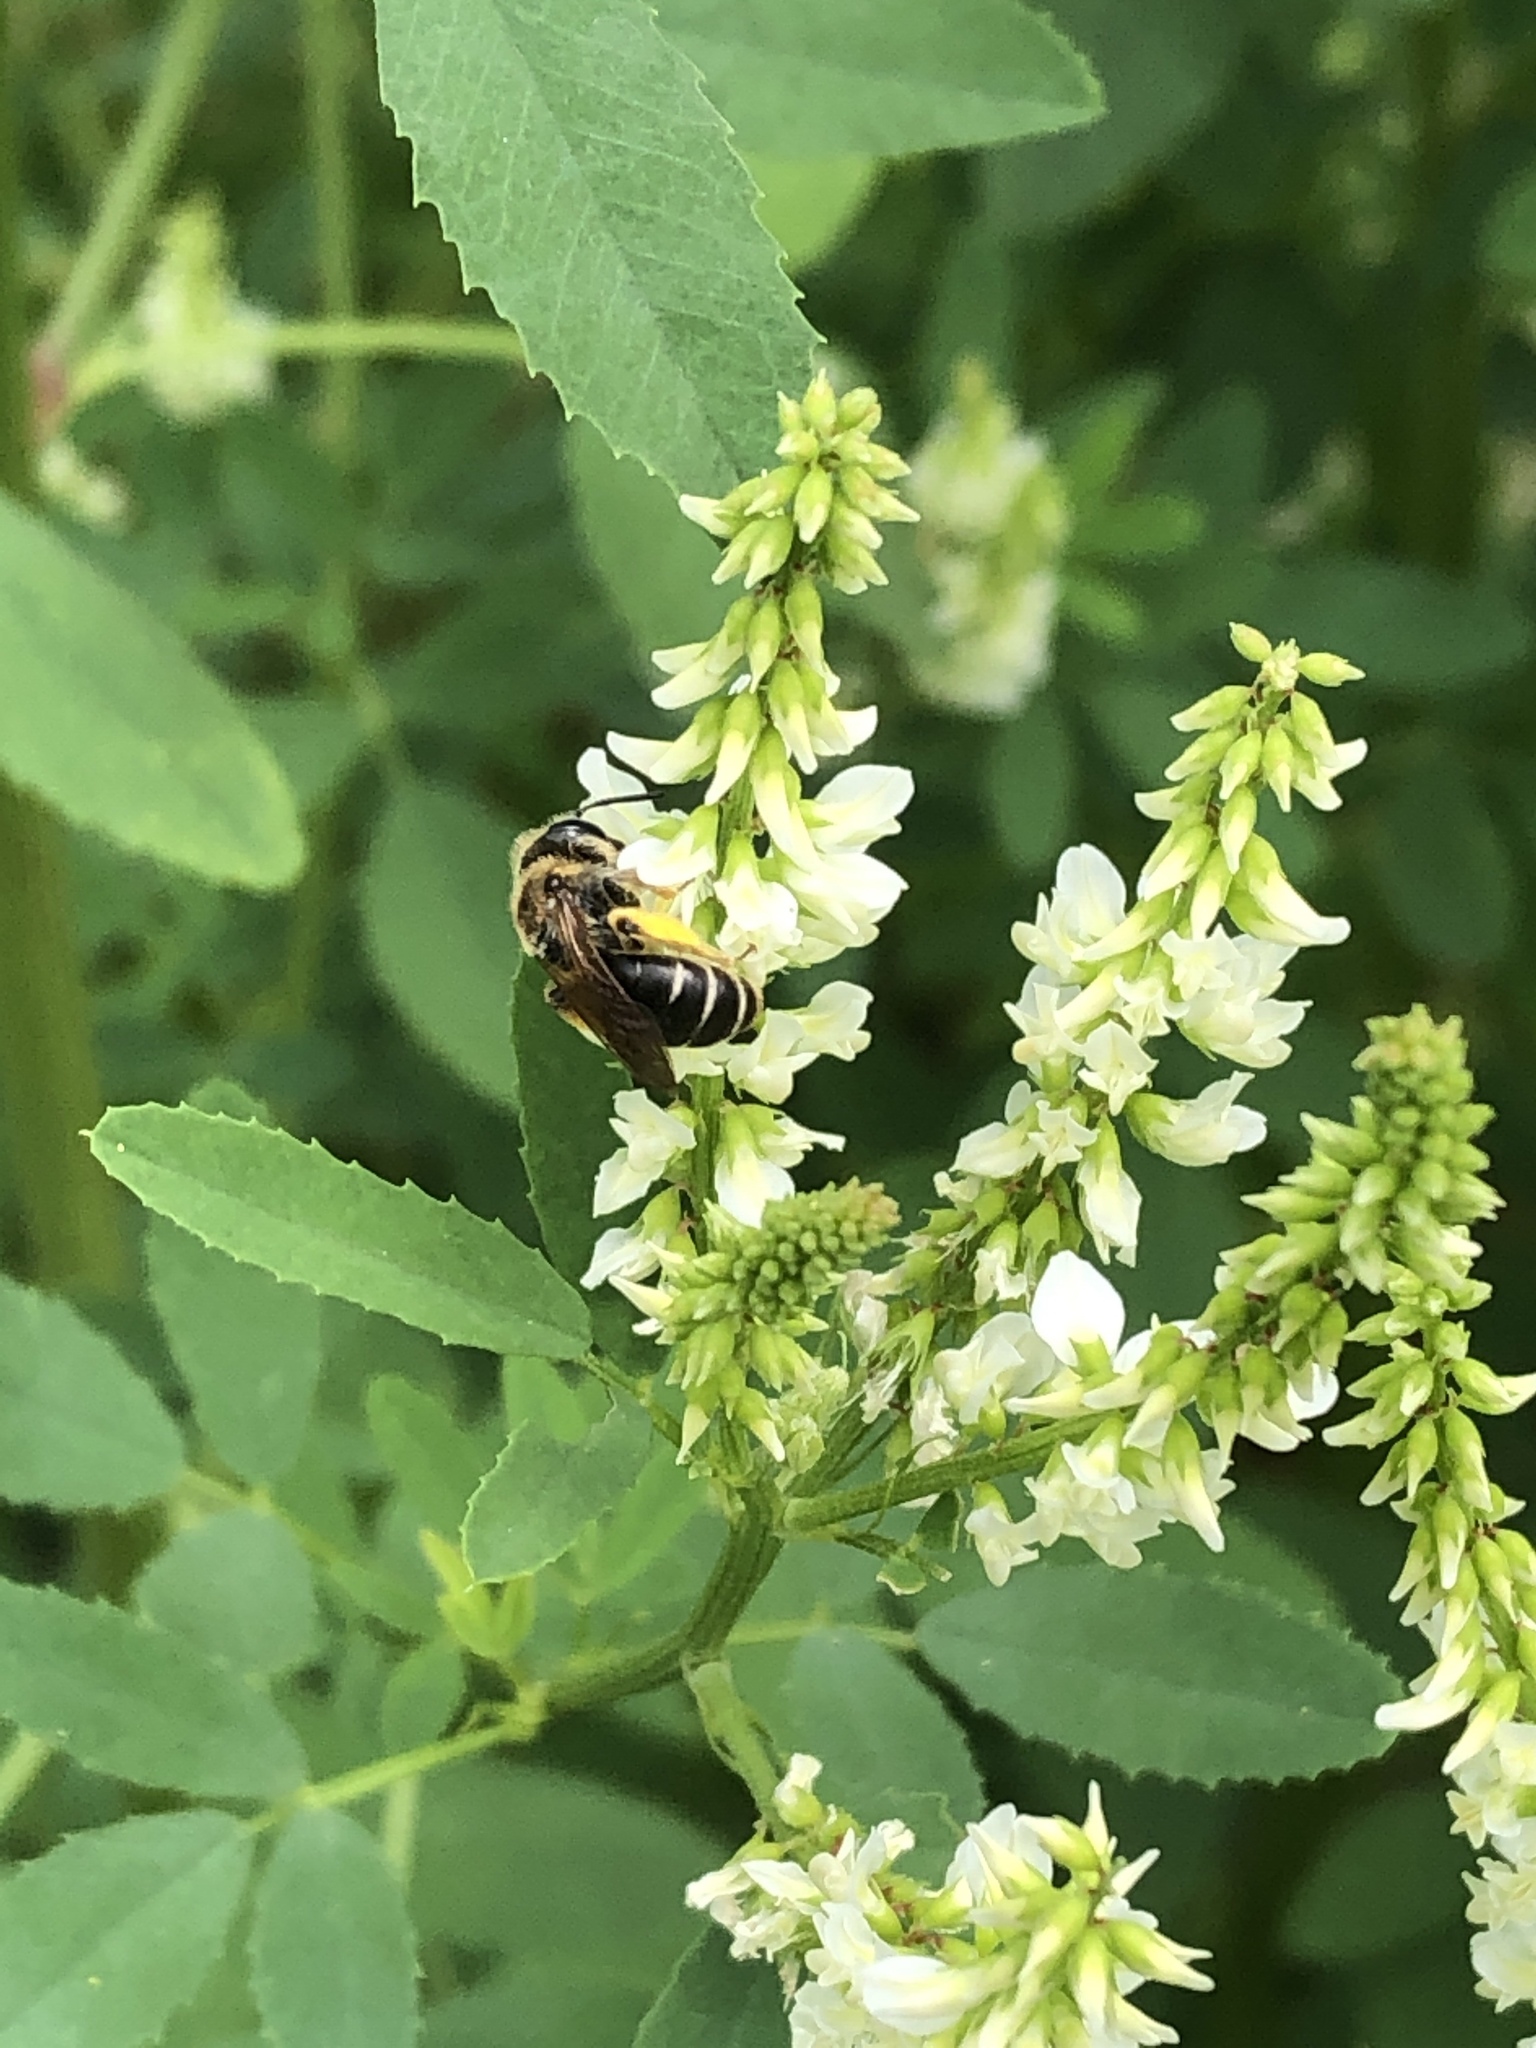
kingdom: Animalia
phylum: Arthropoda
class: Insecta
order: Hymenoptera
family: Andrenidae
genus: Andrena
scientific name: Andrena wilkella
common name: Wilke's mining bee
